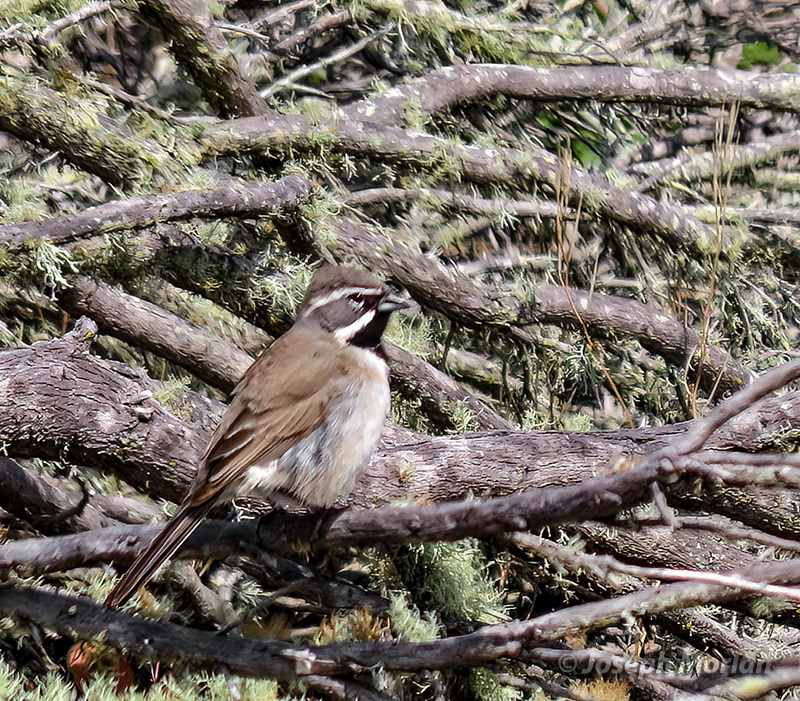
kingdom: Animalia
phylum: Chordata
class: Aves
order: Passeriformes
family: Passerellidae
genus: Amphispiza
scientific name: Amphispiza bilineata
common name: Black-throated sparrow
